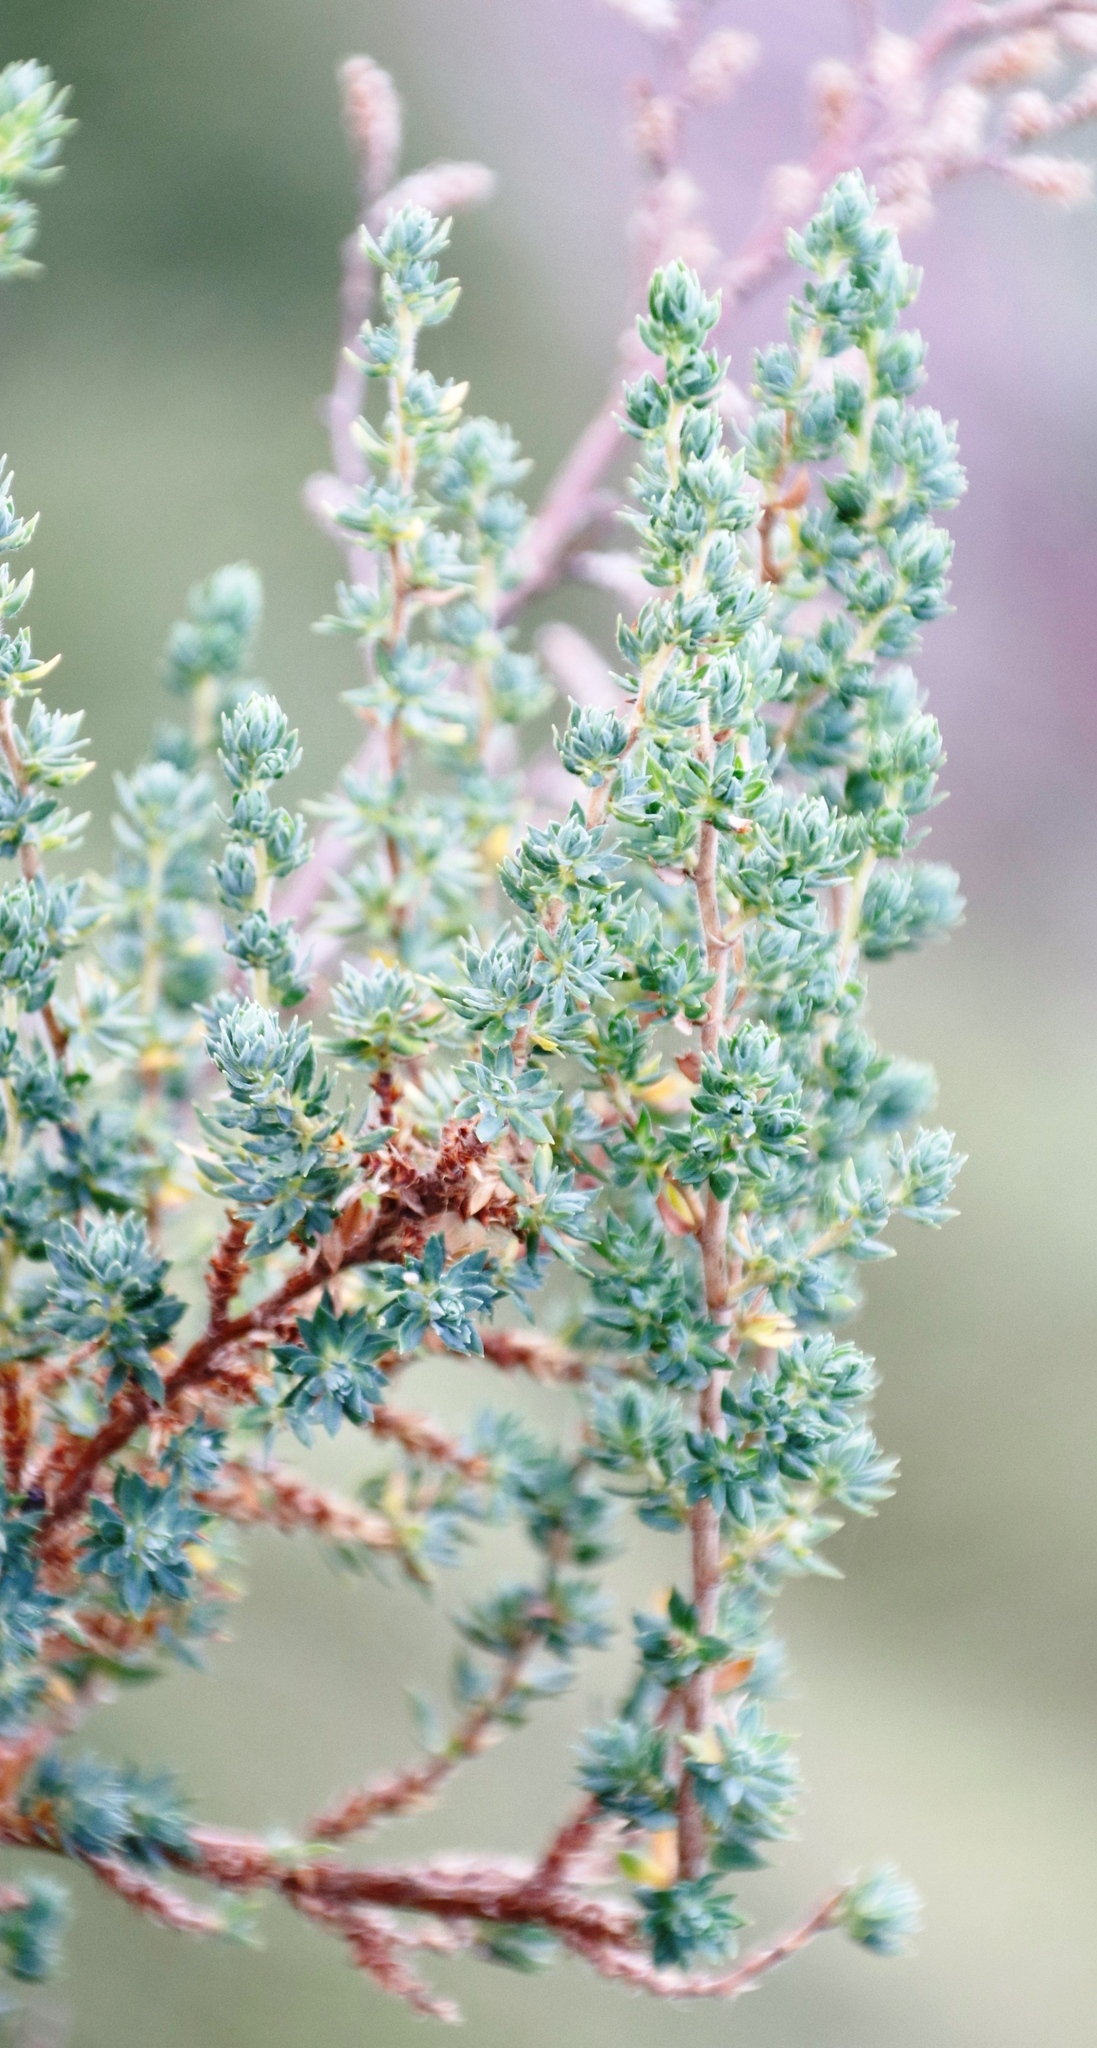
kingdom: Plantae
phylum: Tracheophyta
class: Magnoliopsida
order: Rosales
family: Rosaceae
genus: Cliffortia
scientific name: Cliffortia polygonifolia
